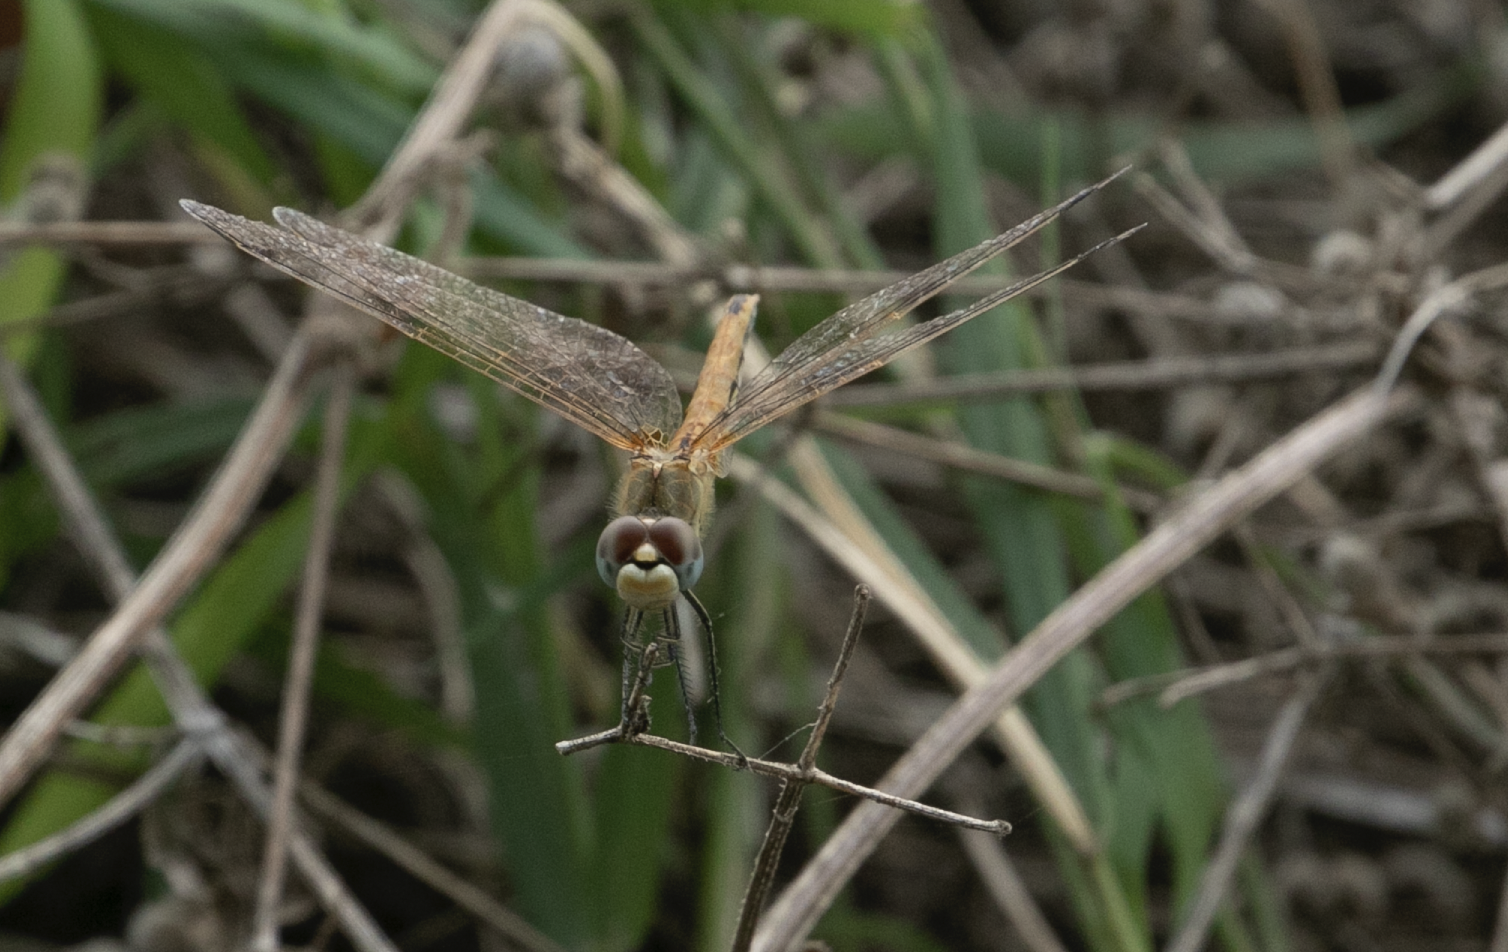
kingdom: Animalia
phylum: Arthropoda
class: Insecta
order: Odonata
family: Libellulidae
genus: Sympetrum
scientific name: Sympetrum fonscolombii
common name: Red-veined darter
